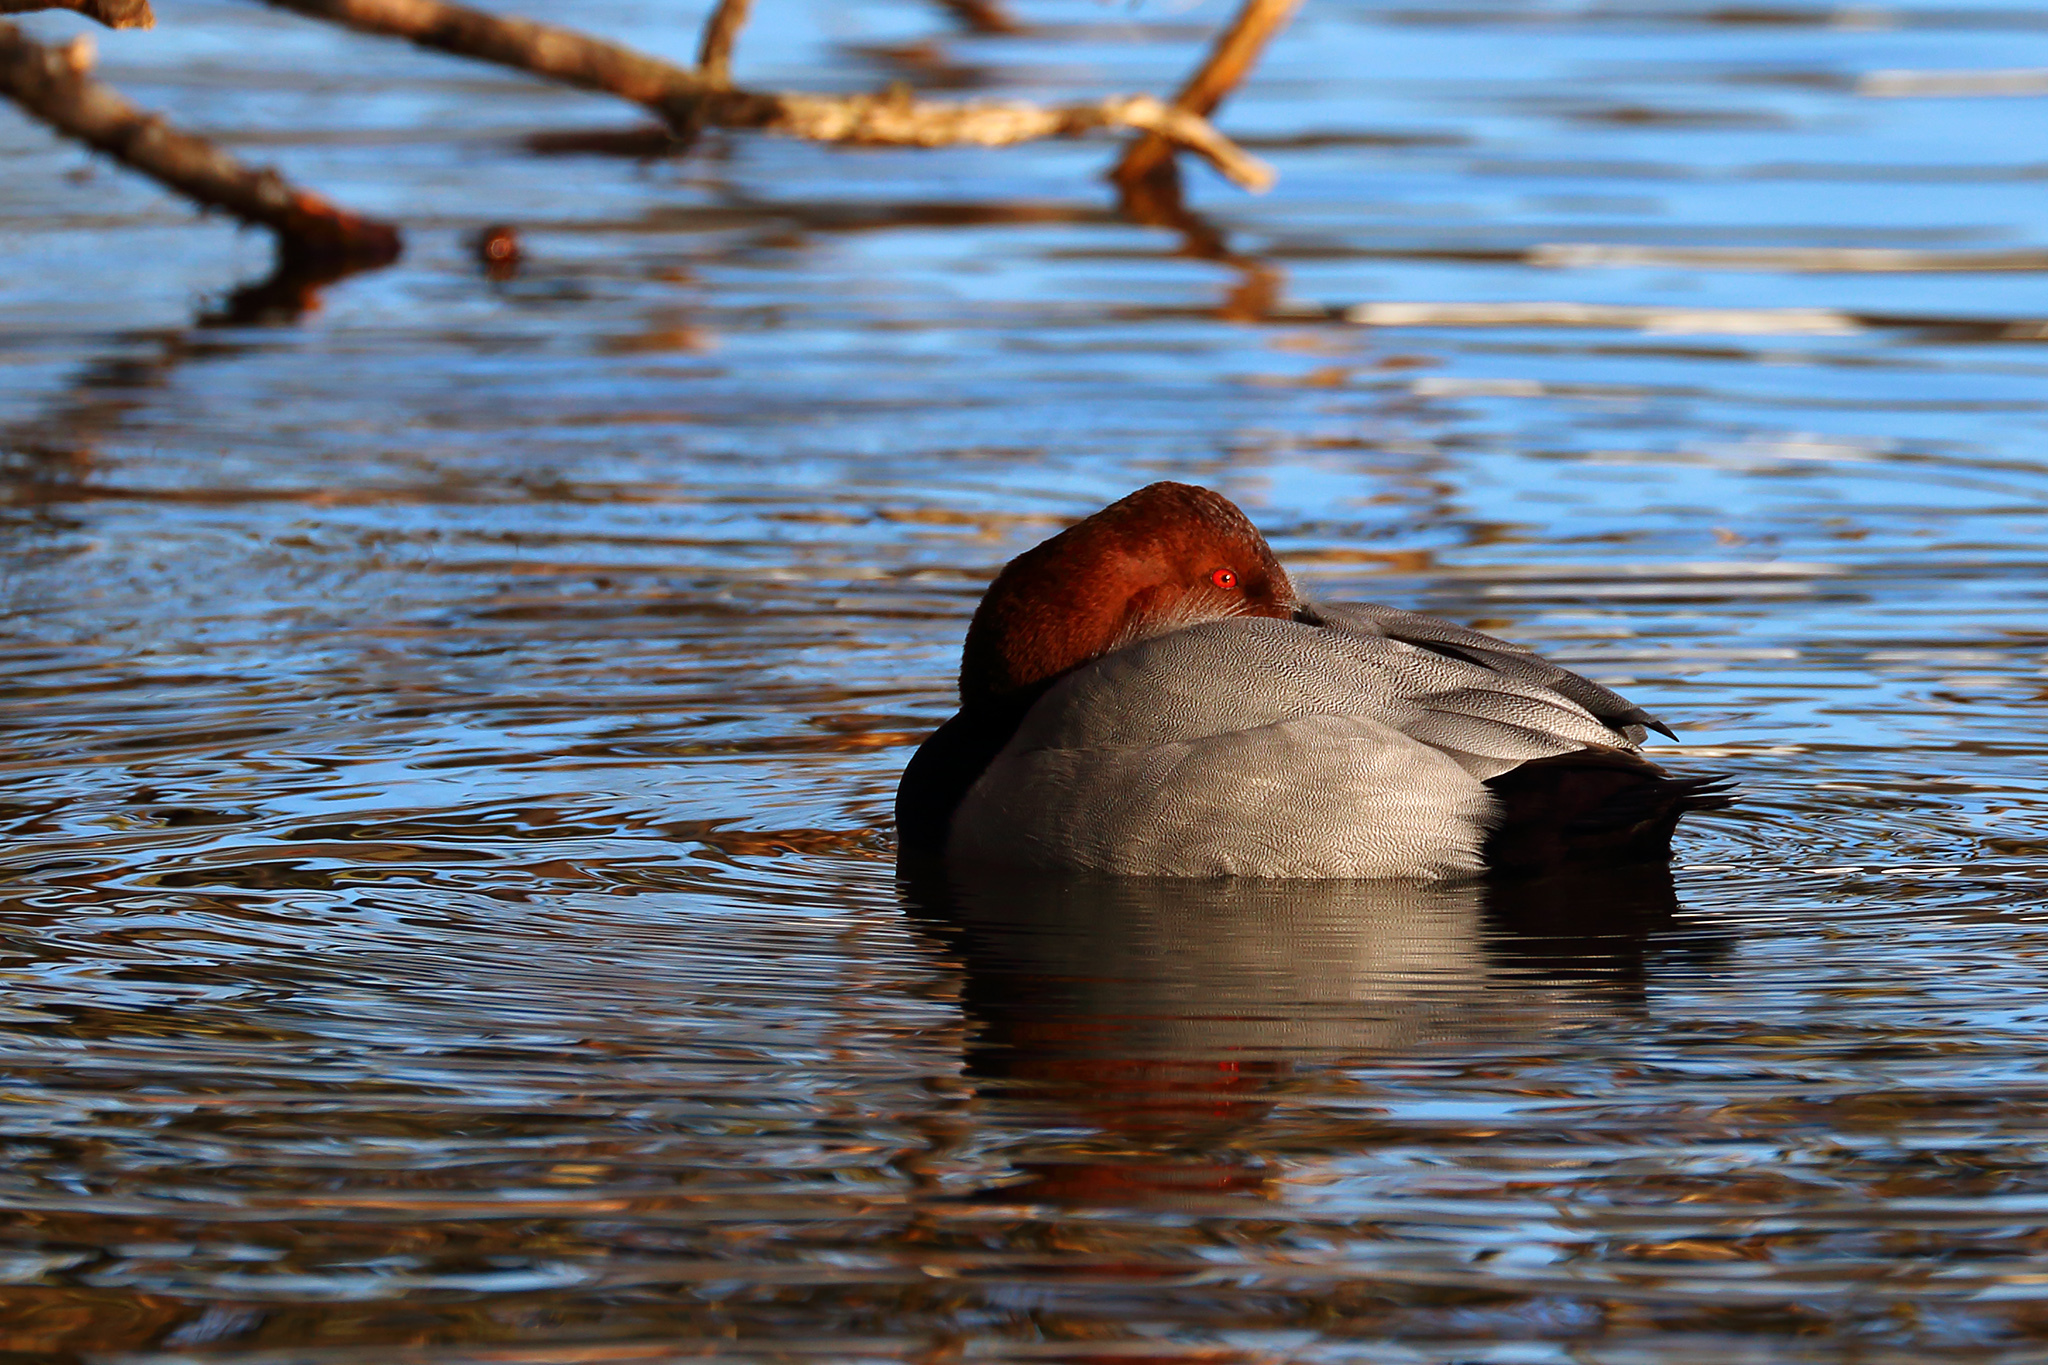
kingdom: Animalia
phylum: Chordata
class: Aves
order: Anseriformes
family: Anatidae
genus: Aythya
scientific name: Aythya ferina
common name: Common pochard
